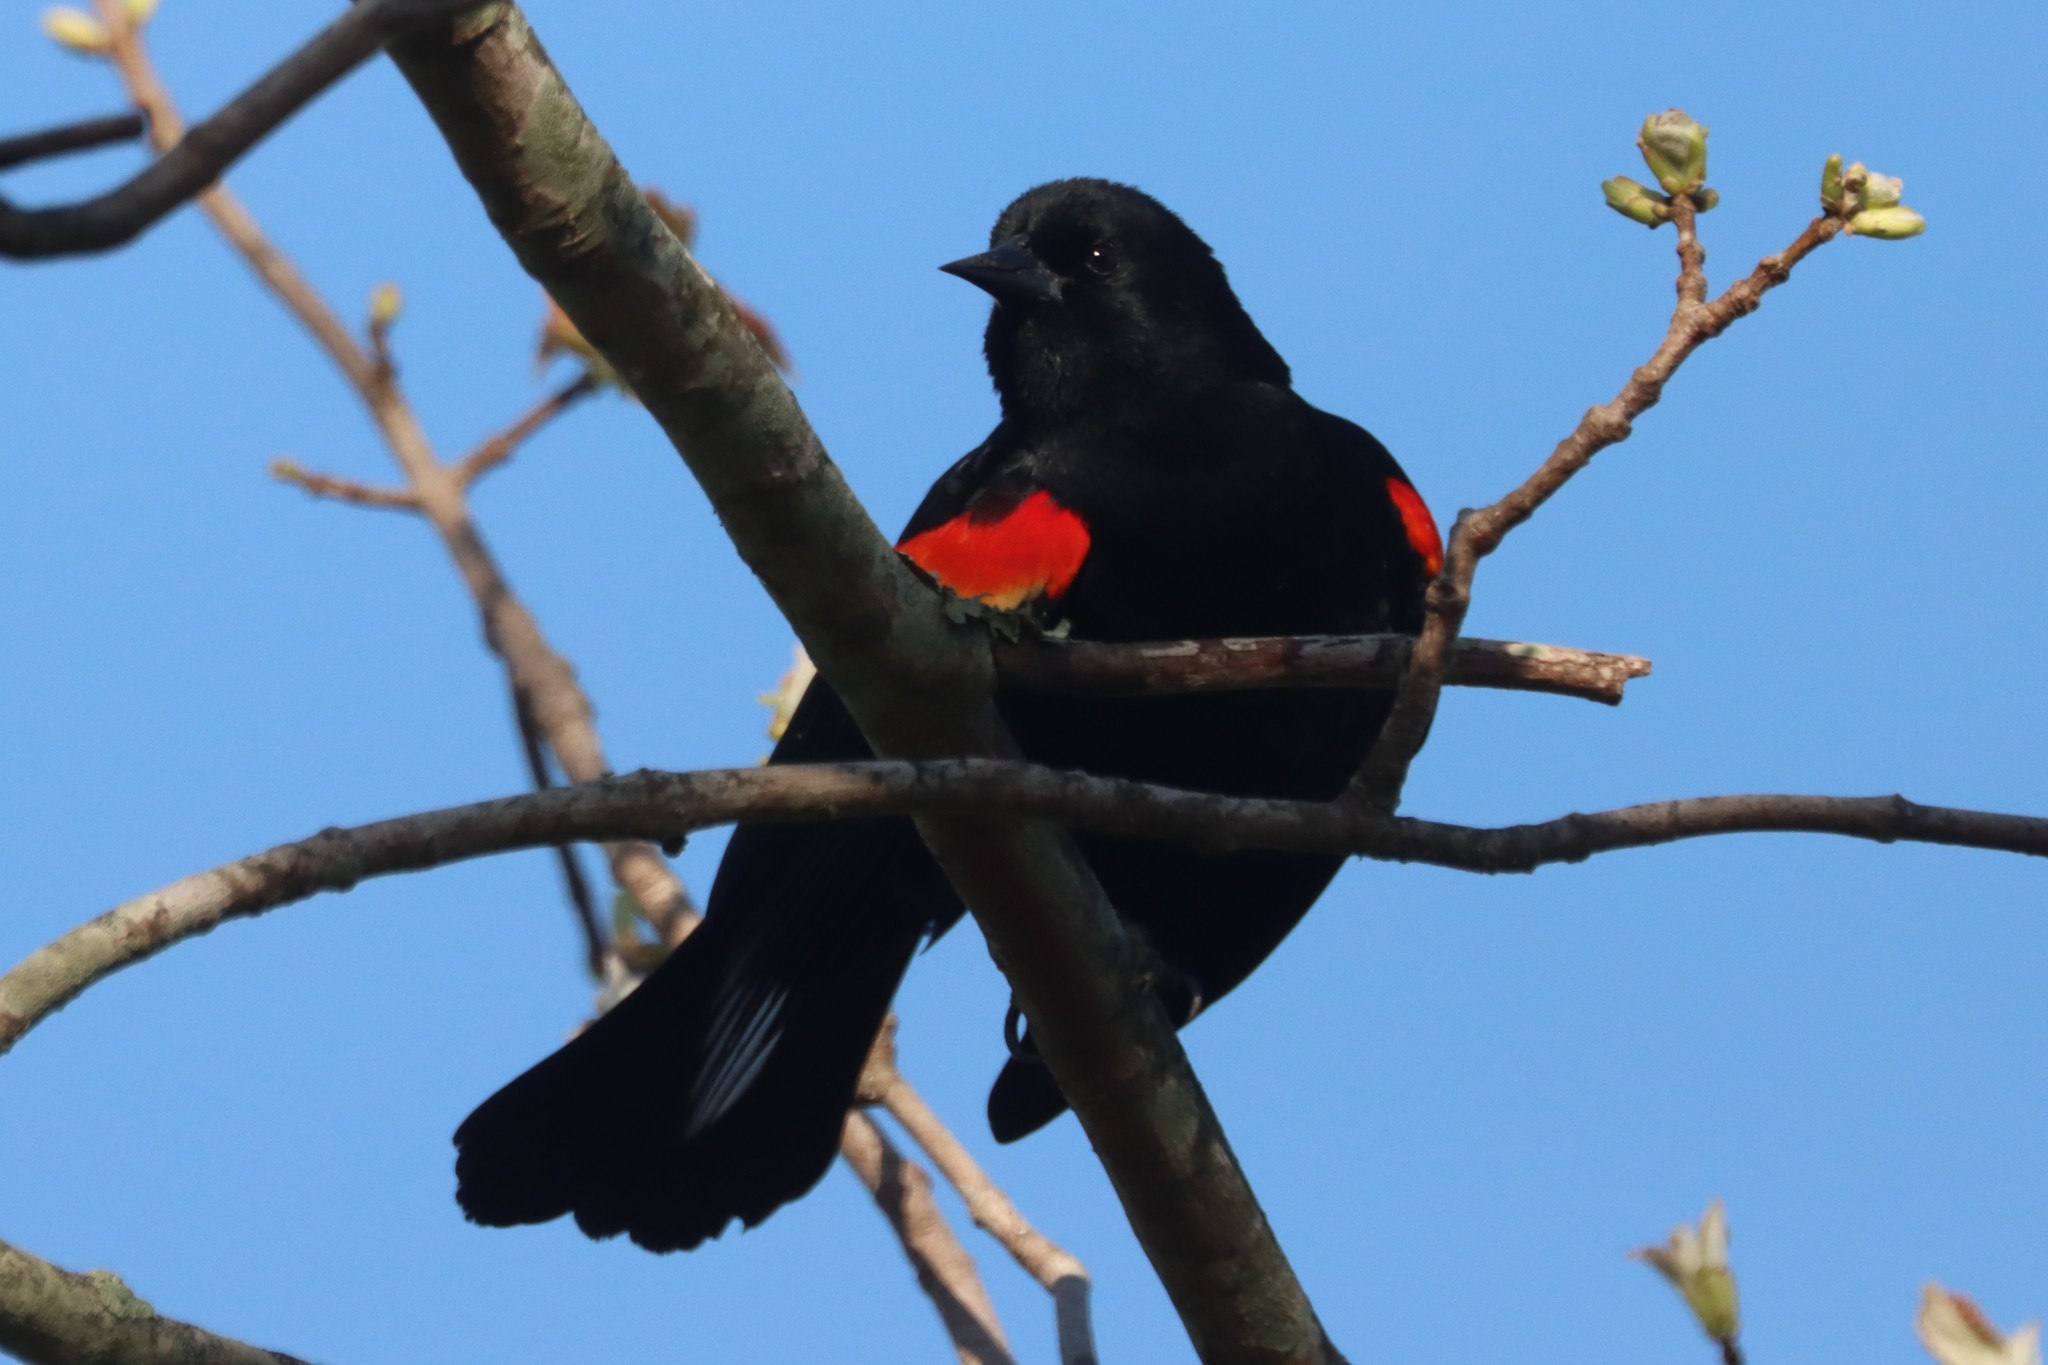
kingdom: Animalia
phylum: Chordata
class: Aves
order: Passeriformes
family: Icteridae
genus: Agelaius
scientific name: Agelaius phoeniceus
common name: Red-winged blackbird
